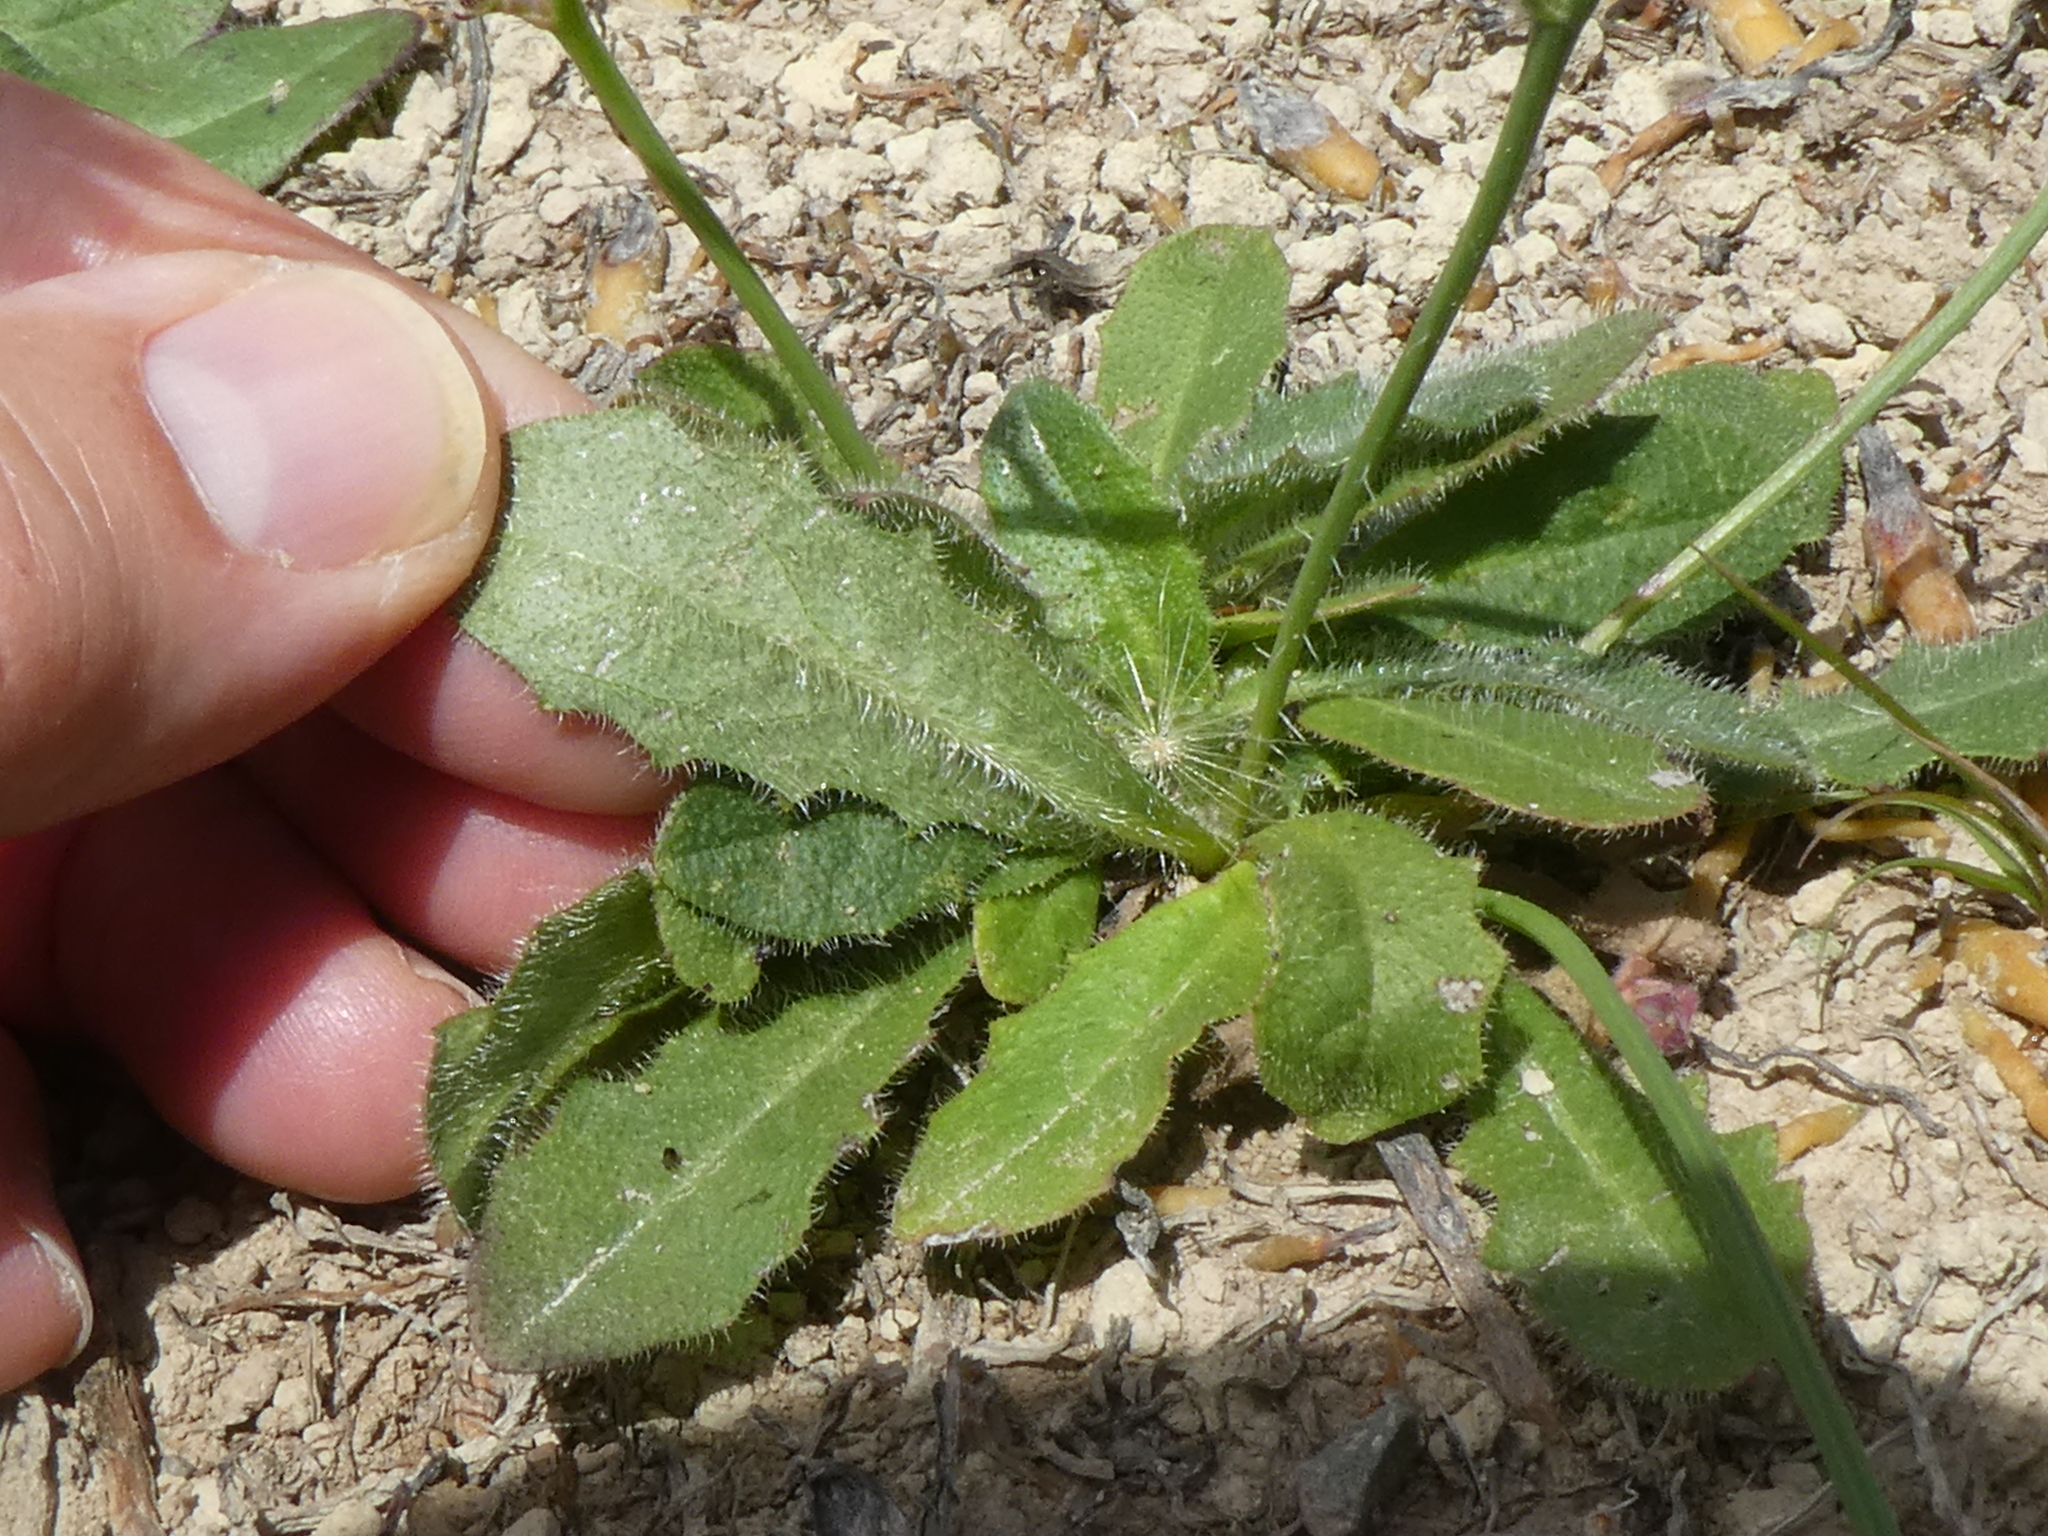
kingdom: Plantae
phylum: Tracheophyta
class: Magnoliopsida
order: Asterales
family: Asteraceae
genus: Hypochaeris
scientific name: Hypochaeris radicata
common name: Flatweed
